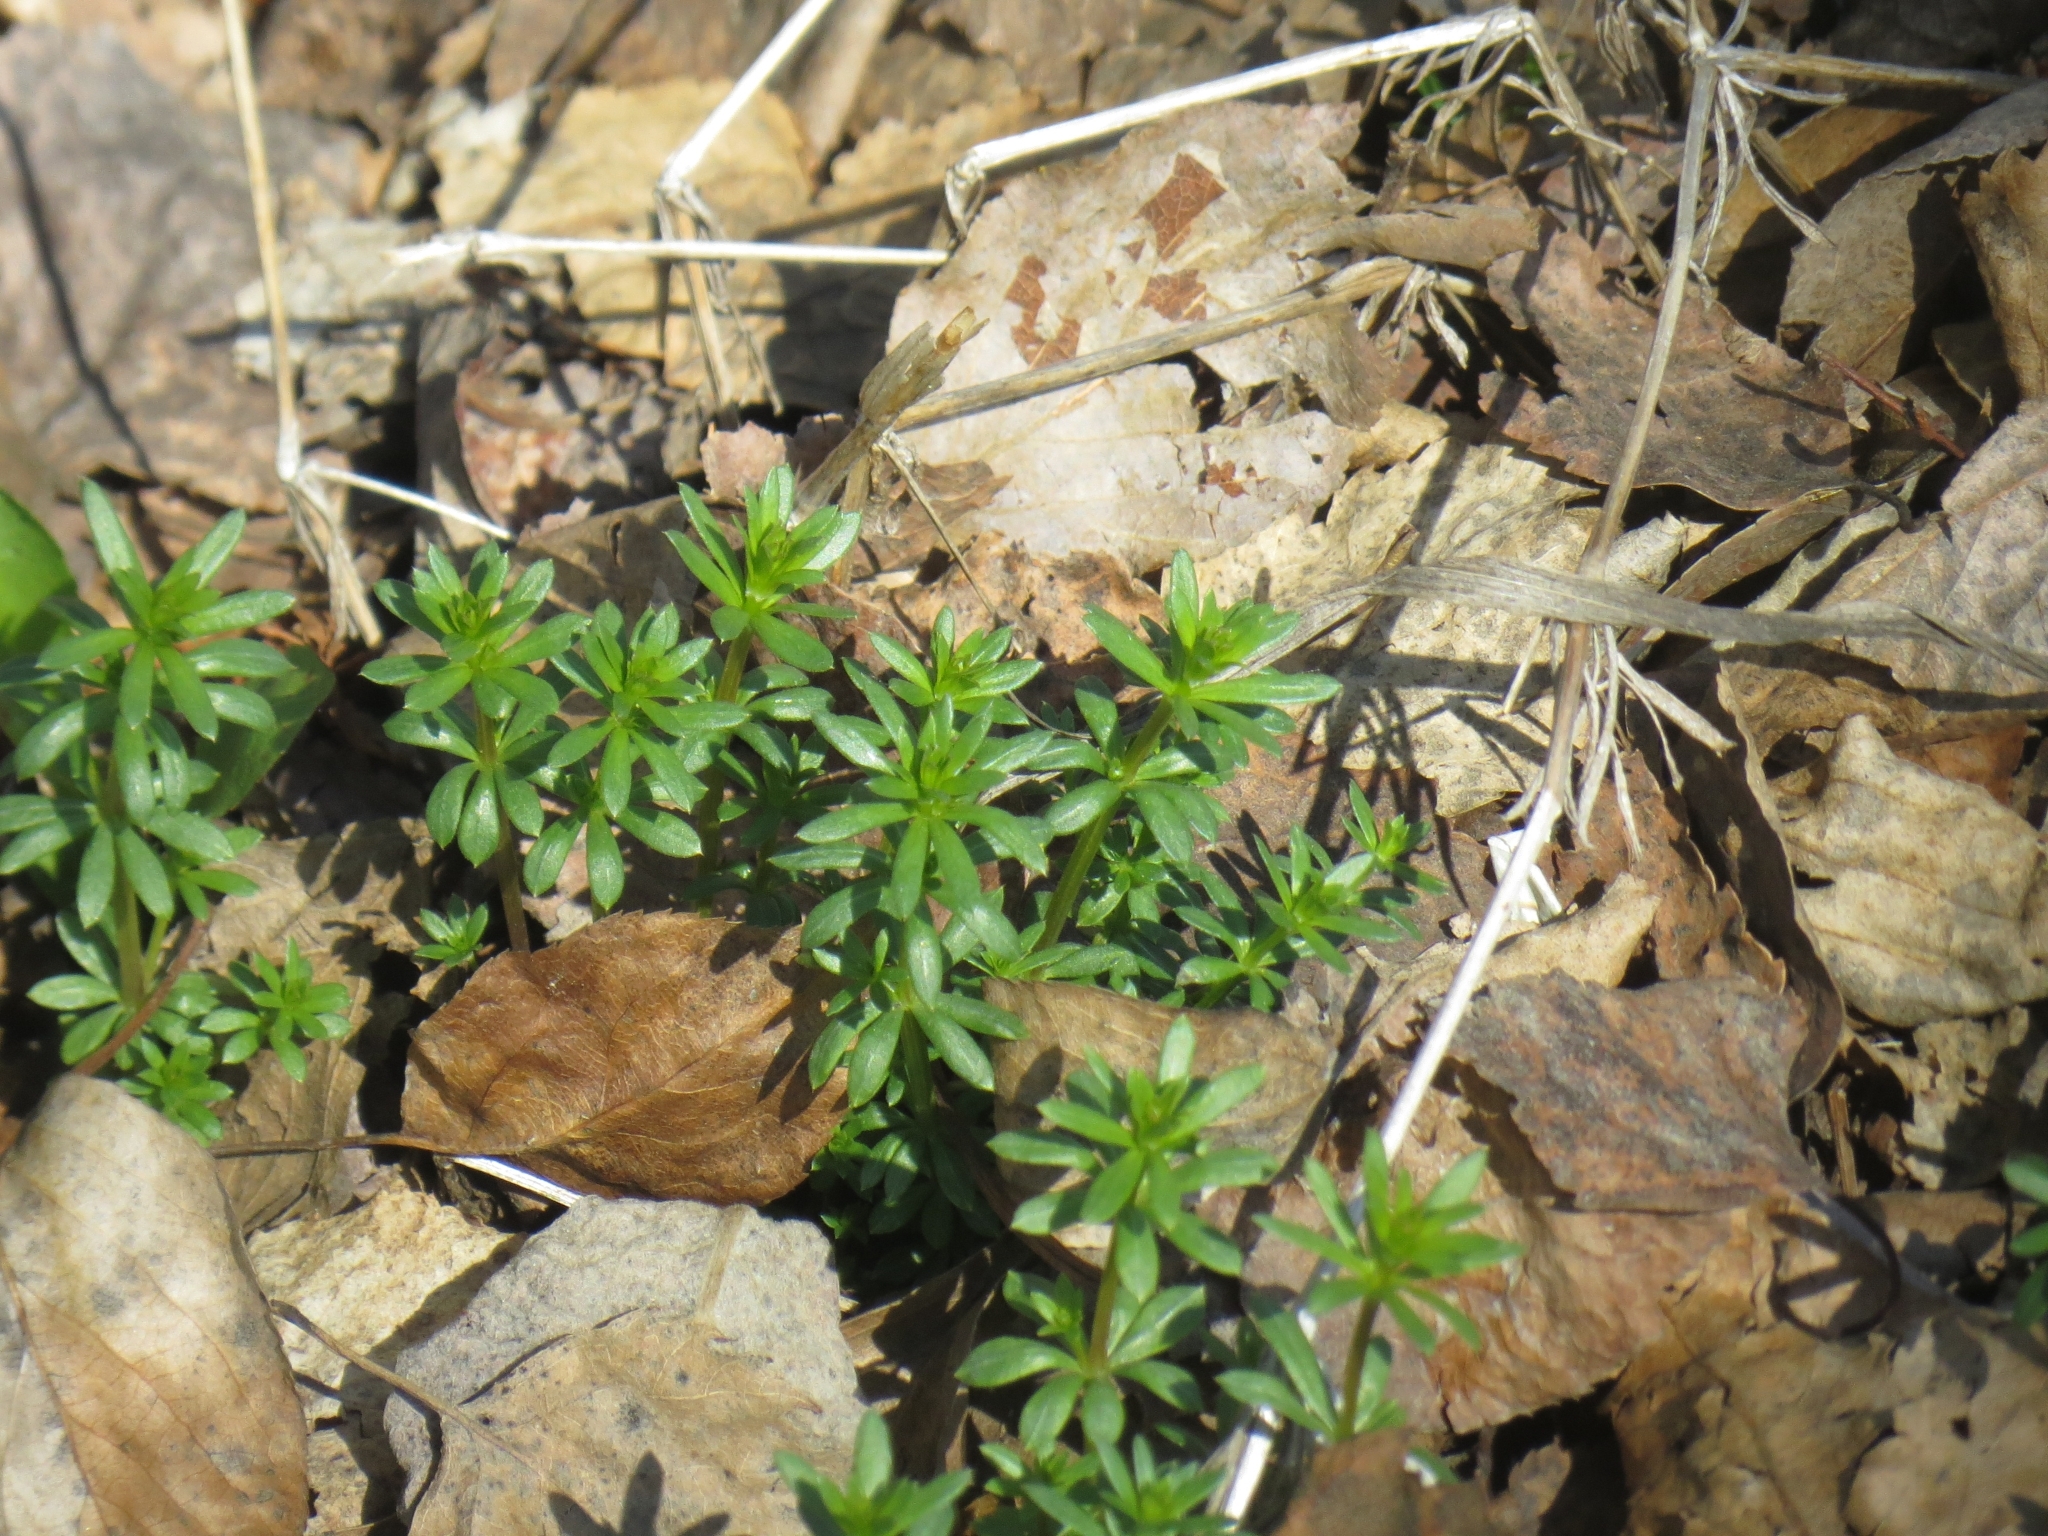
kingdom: Plantae
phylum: Tracheophyta
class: Magnoliopsida
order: Gentianales
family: Rubiaceae
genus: Galium
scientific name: Galium mollugo
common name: Hedge bedstraw
